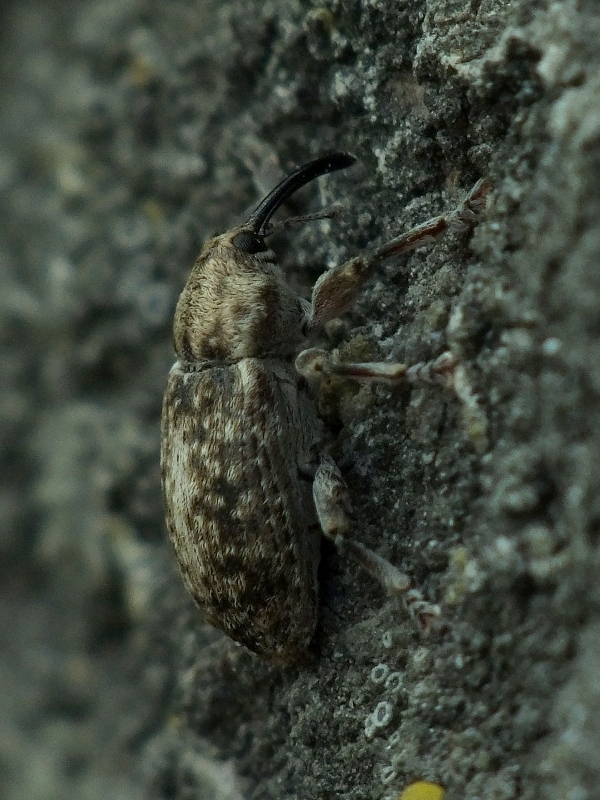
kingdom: Animalia
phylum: Arthropoda
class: Insecta
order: Coleoptera
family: Curculionidae
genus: Dorytomus
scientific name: Dorytomus tremulae
